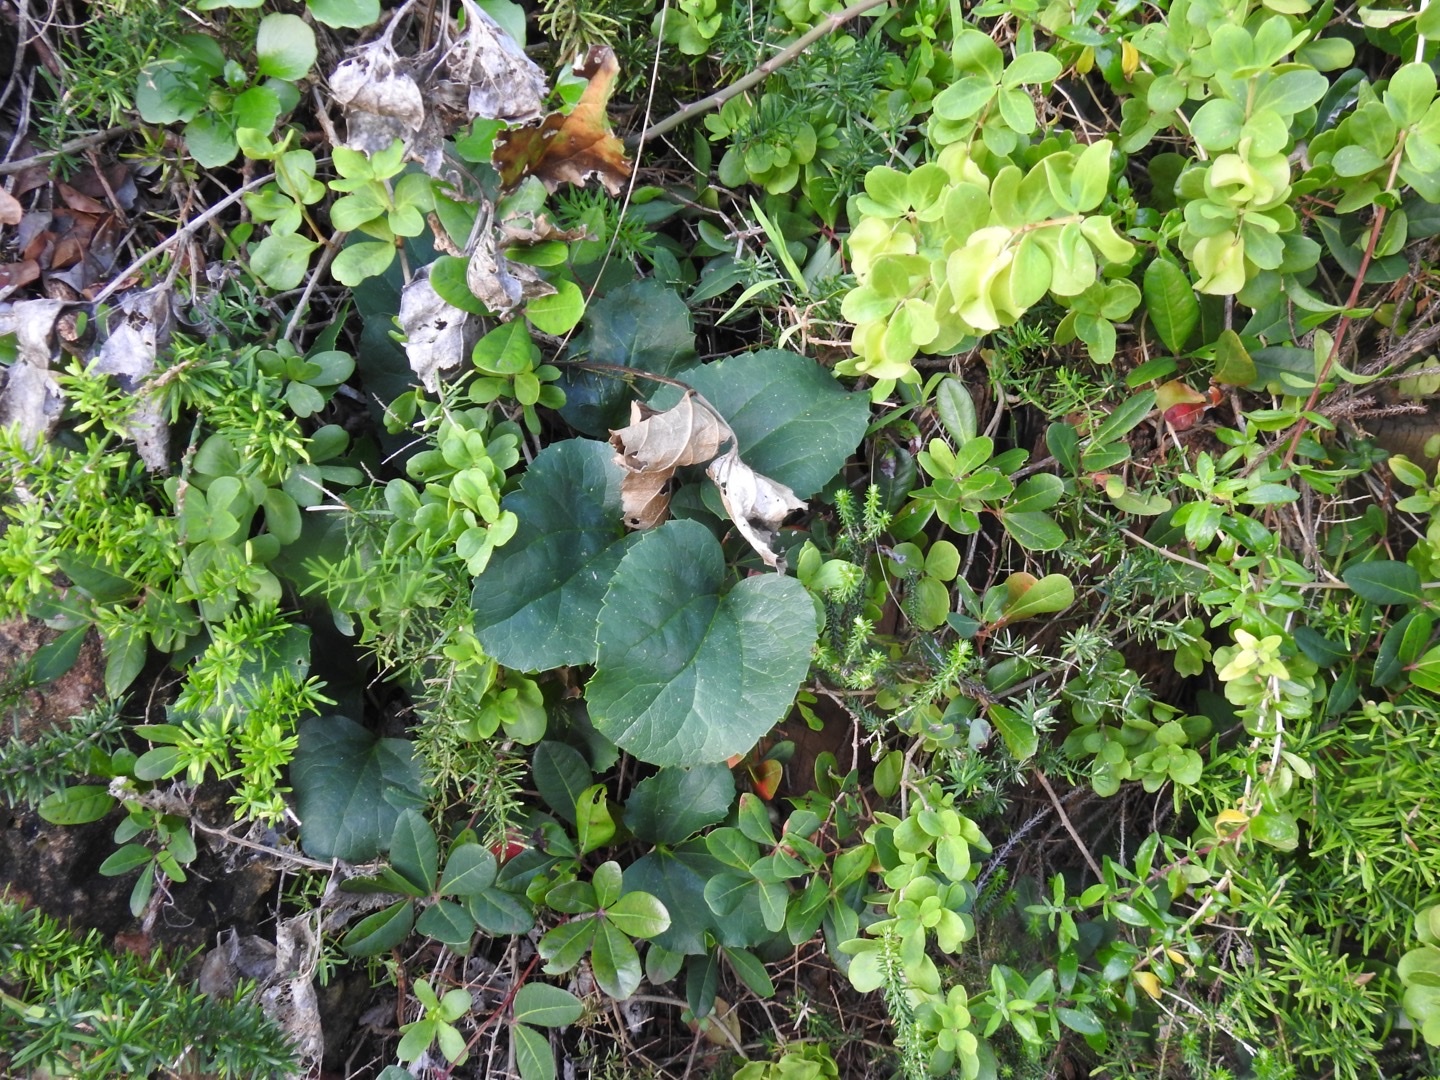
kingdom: Plantae
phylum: Tracheophyta
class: Magnoliopsida
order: Ranunculales
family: Ranunculaceae
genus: Knowltonia
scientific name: Knowltonia vesicatoria
